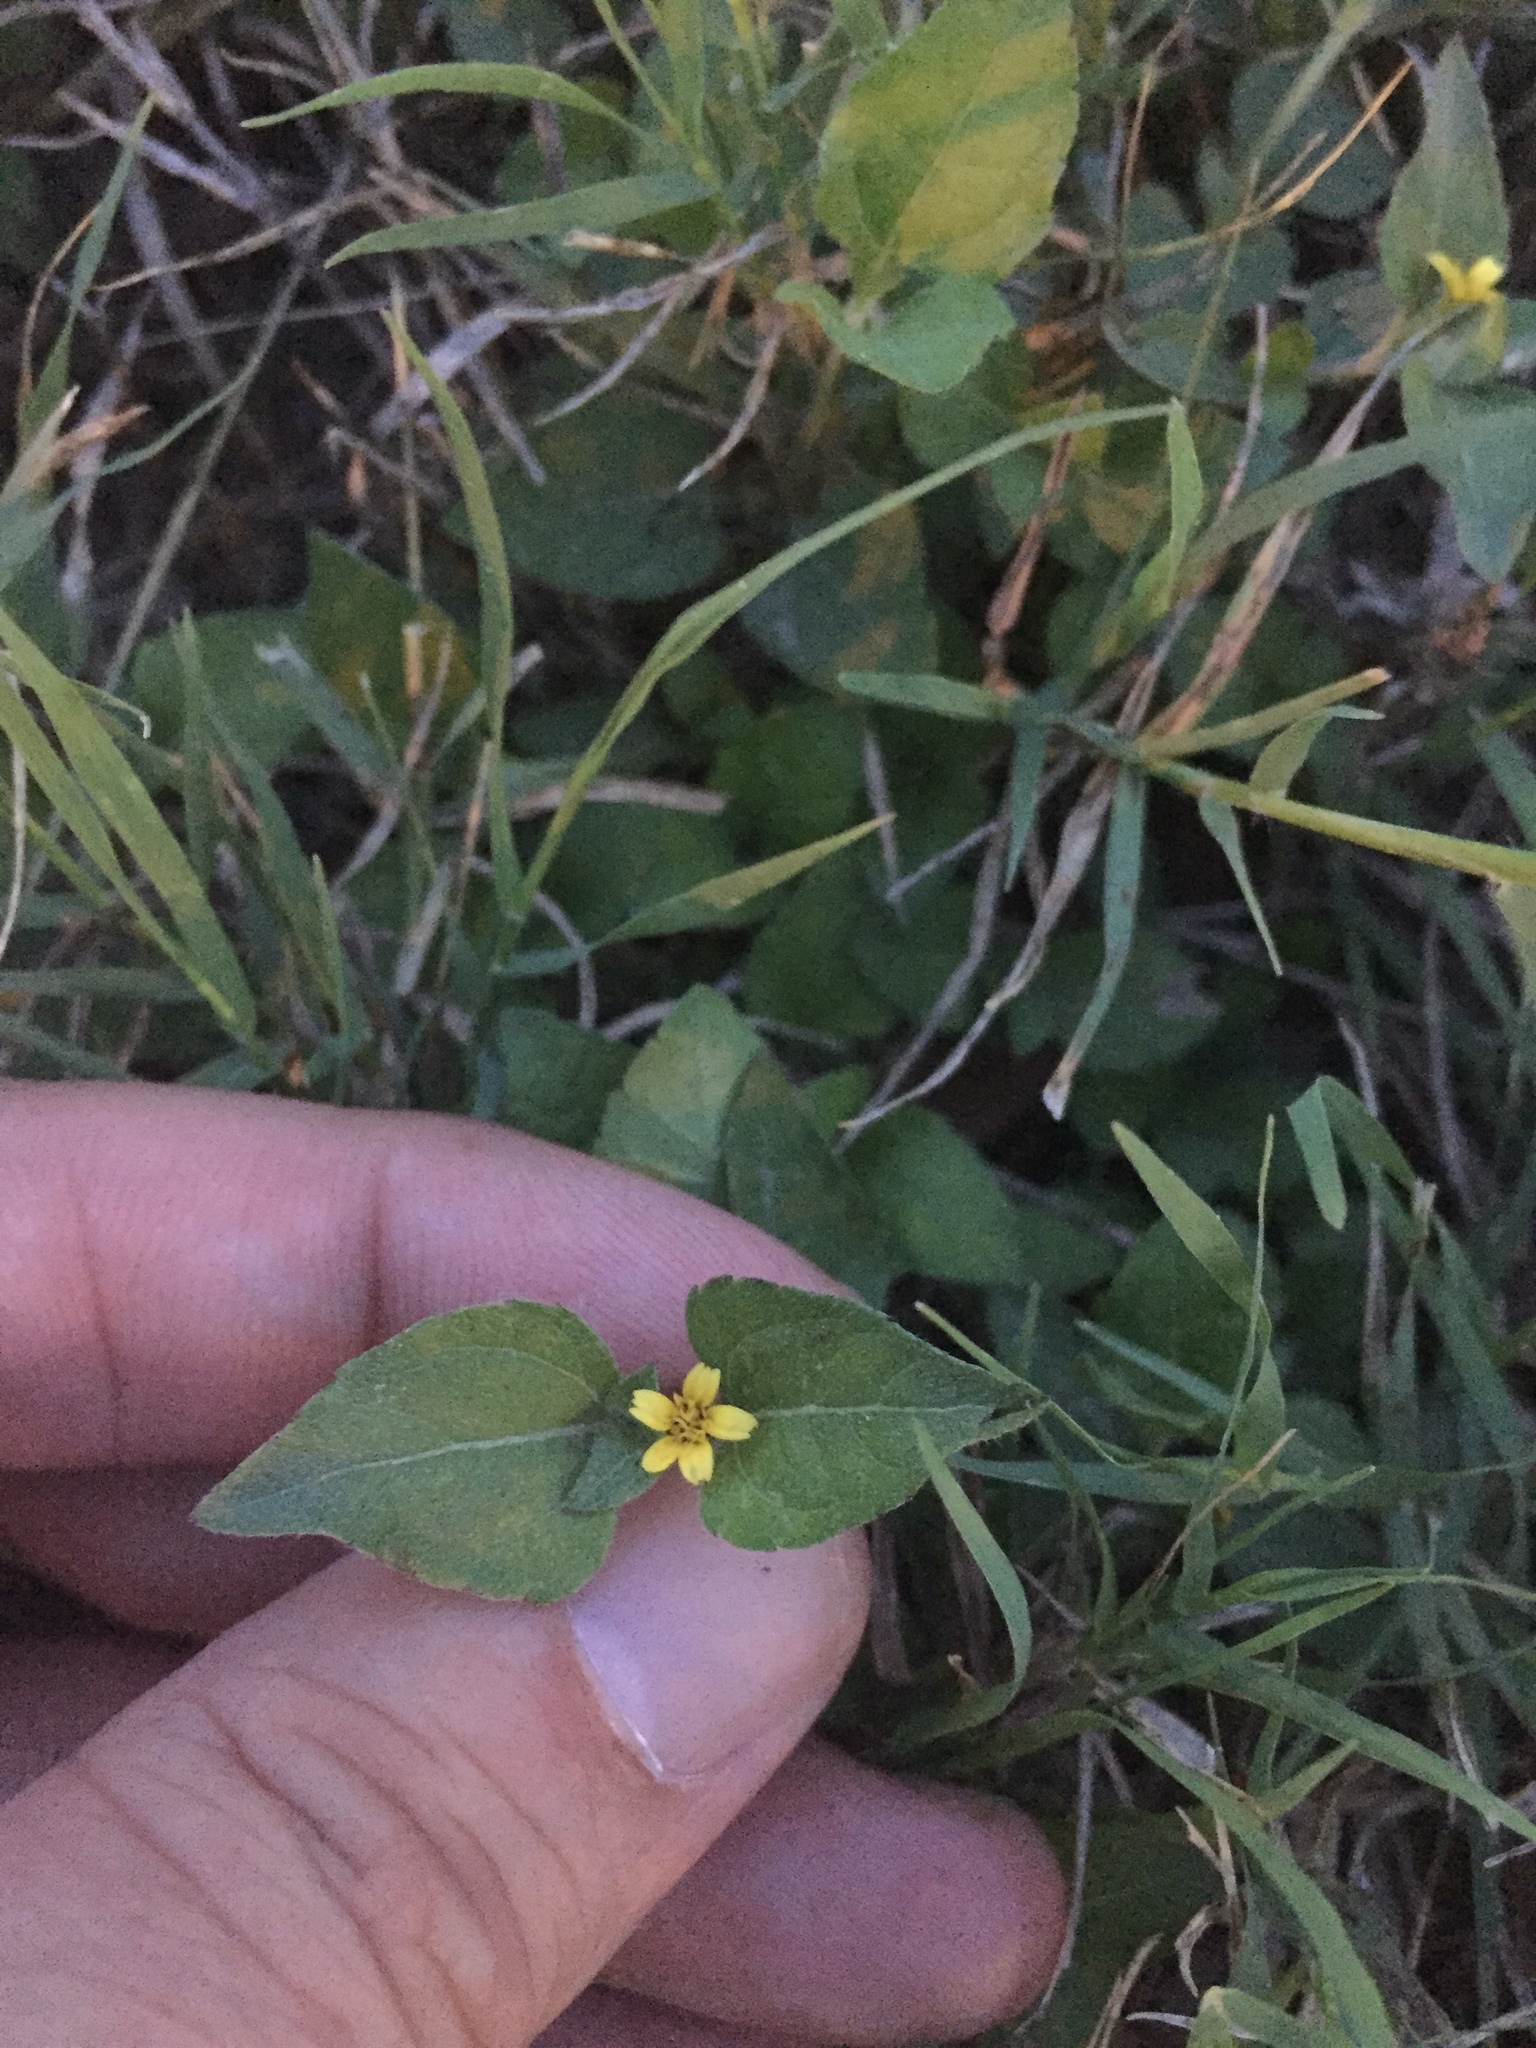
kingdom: Plantae
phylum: Tracheophyta
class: Magnoliopsida
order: Asterales
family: Asteraceae
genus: Calyptocarpus
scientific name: Calyptocarpus vialis
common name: Straggler daisy
